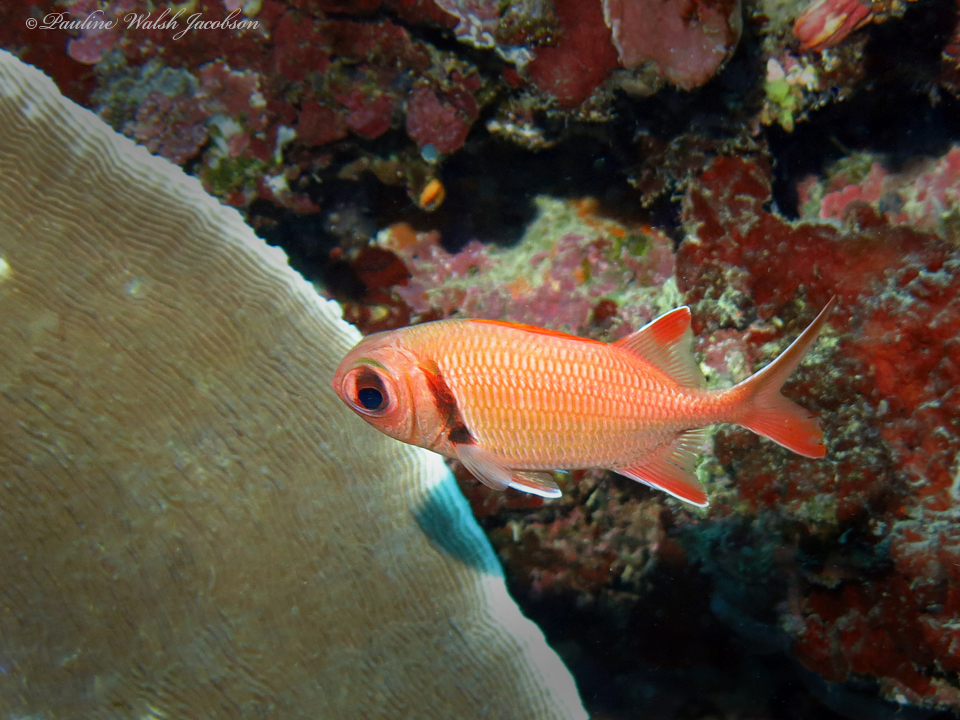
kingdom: Animalia
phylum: Chordata
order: Beryciformes
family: Holocentridae
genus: Myripristis
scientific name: Myripristis kuntee
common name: Epaulette soldierfish
